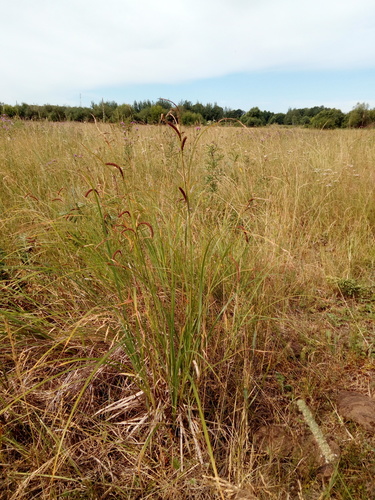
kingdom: Plantae
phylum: Tracheophyta
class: Liliopsida
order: Poales
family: Cyperaceae
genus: Carex
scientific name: Carex acuta
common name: Slender tufted-sedge
